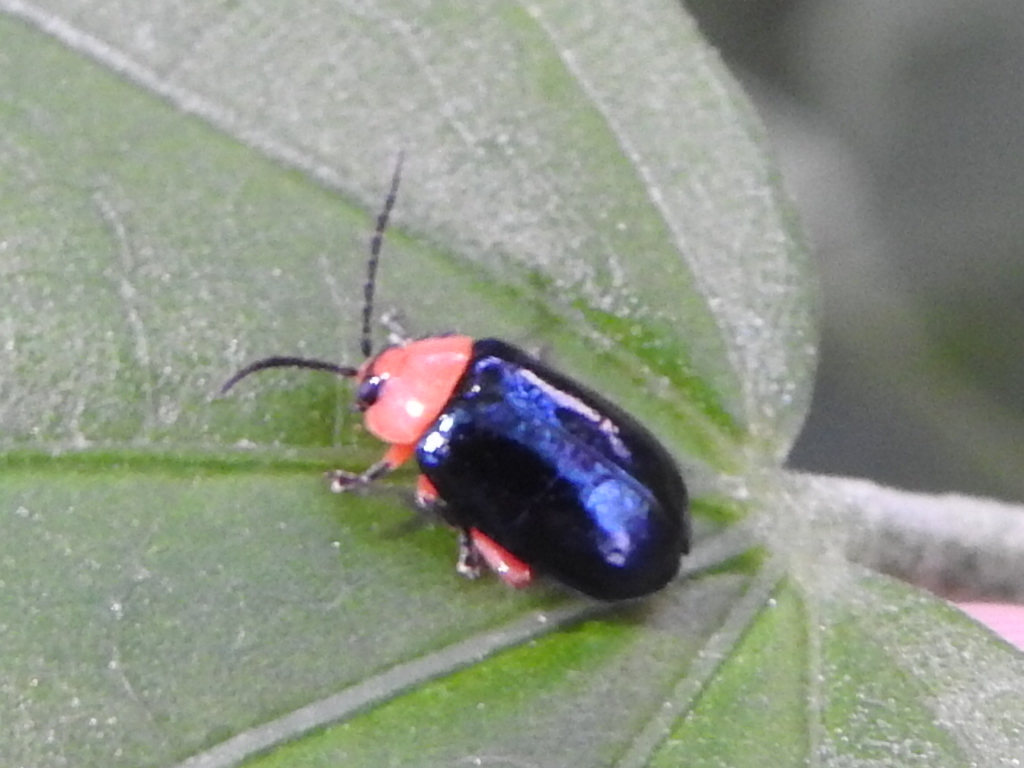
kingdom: Animalia
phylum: Arthropoda
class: Insecta
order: Coleoptera
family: Chrysomelidae
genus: Asphaera
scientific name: Asphaera lustrans
